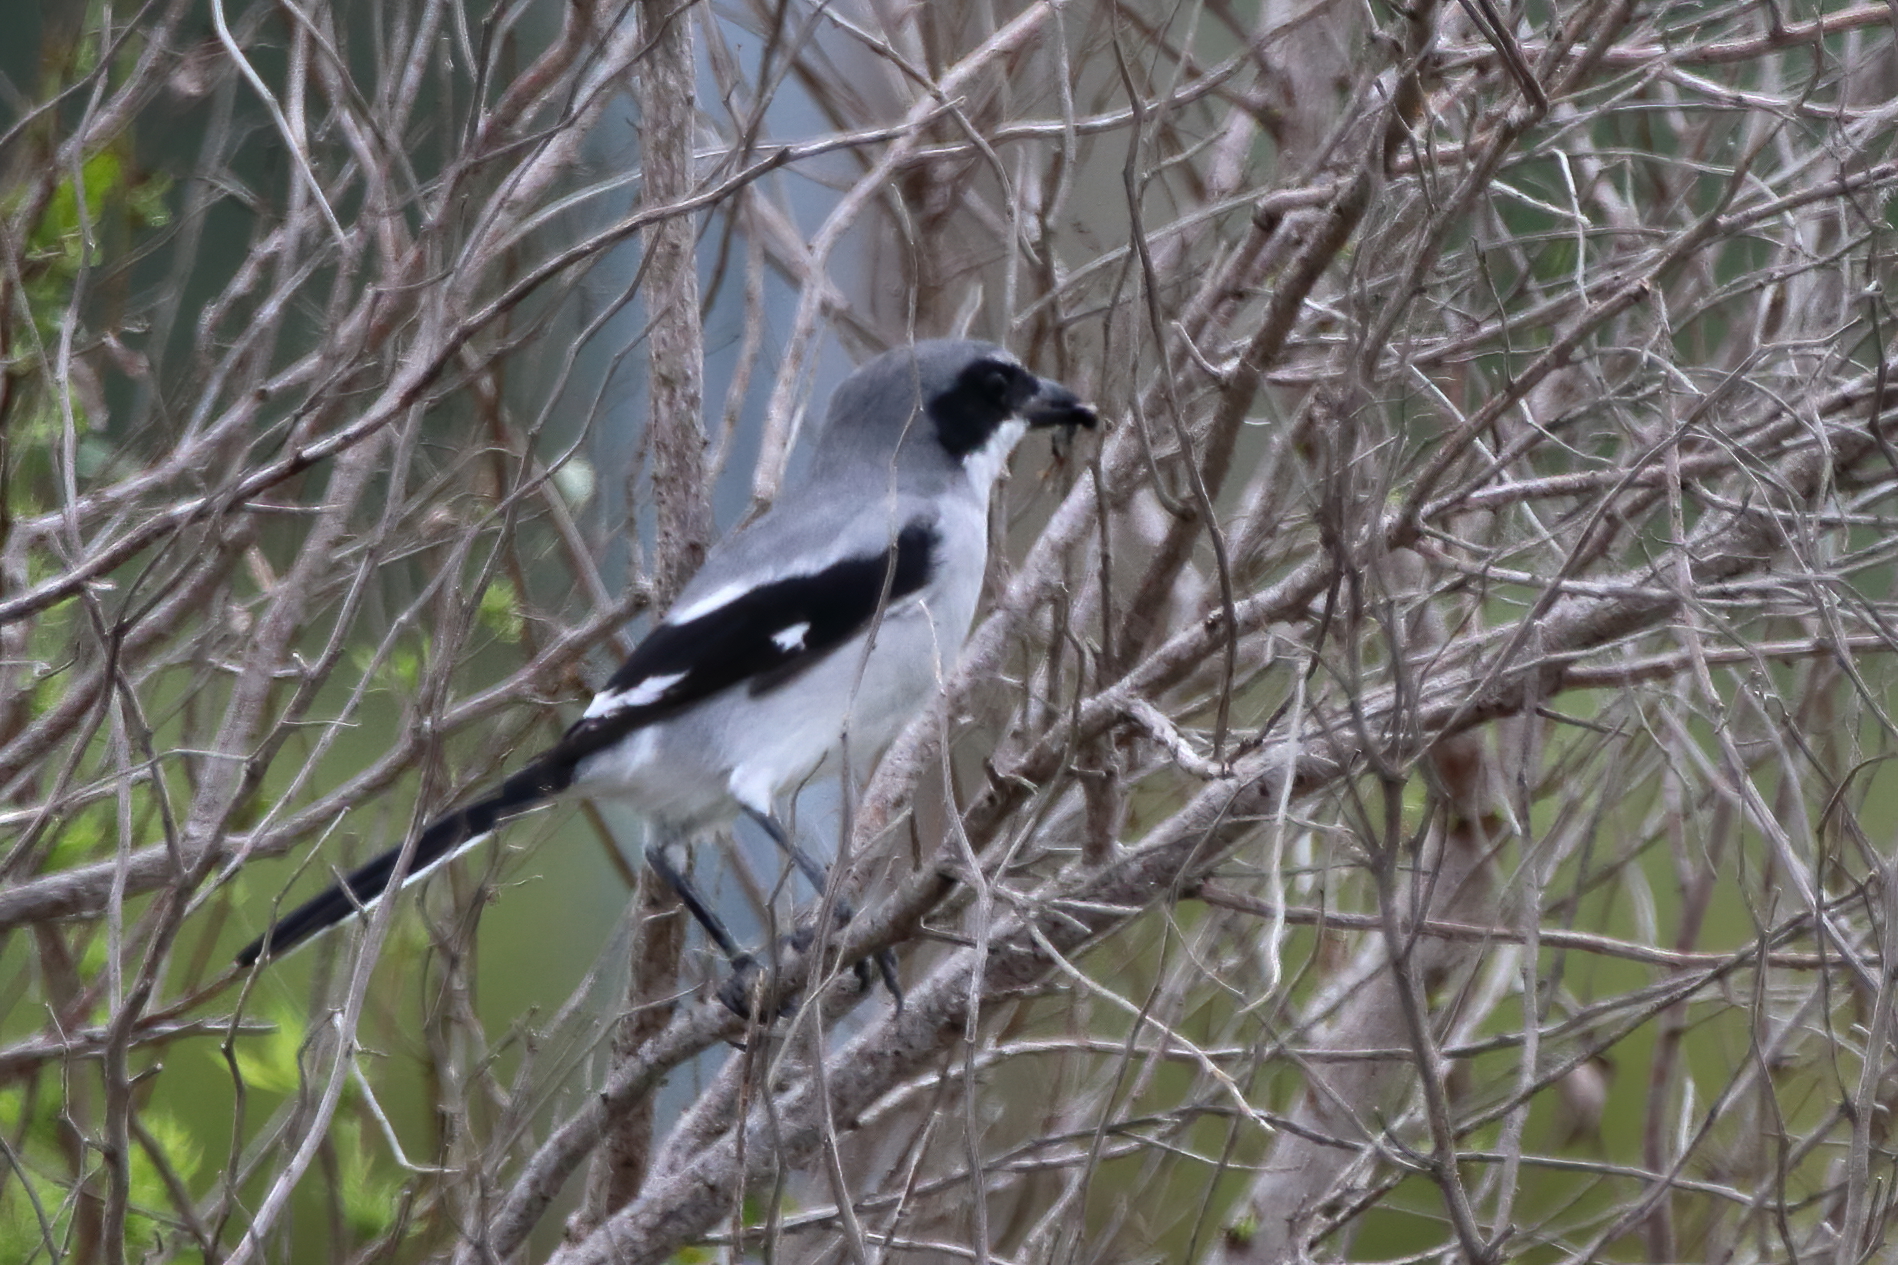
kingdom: Animalia
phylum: Chordata
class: Aves
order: Passeriformes
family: Laniidae
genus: Lanius
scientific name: Lanius ludovicianus
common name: Loggerhead shrike
